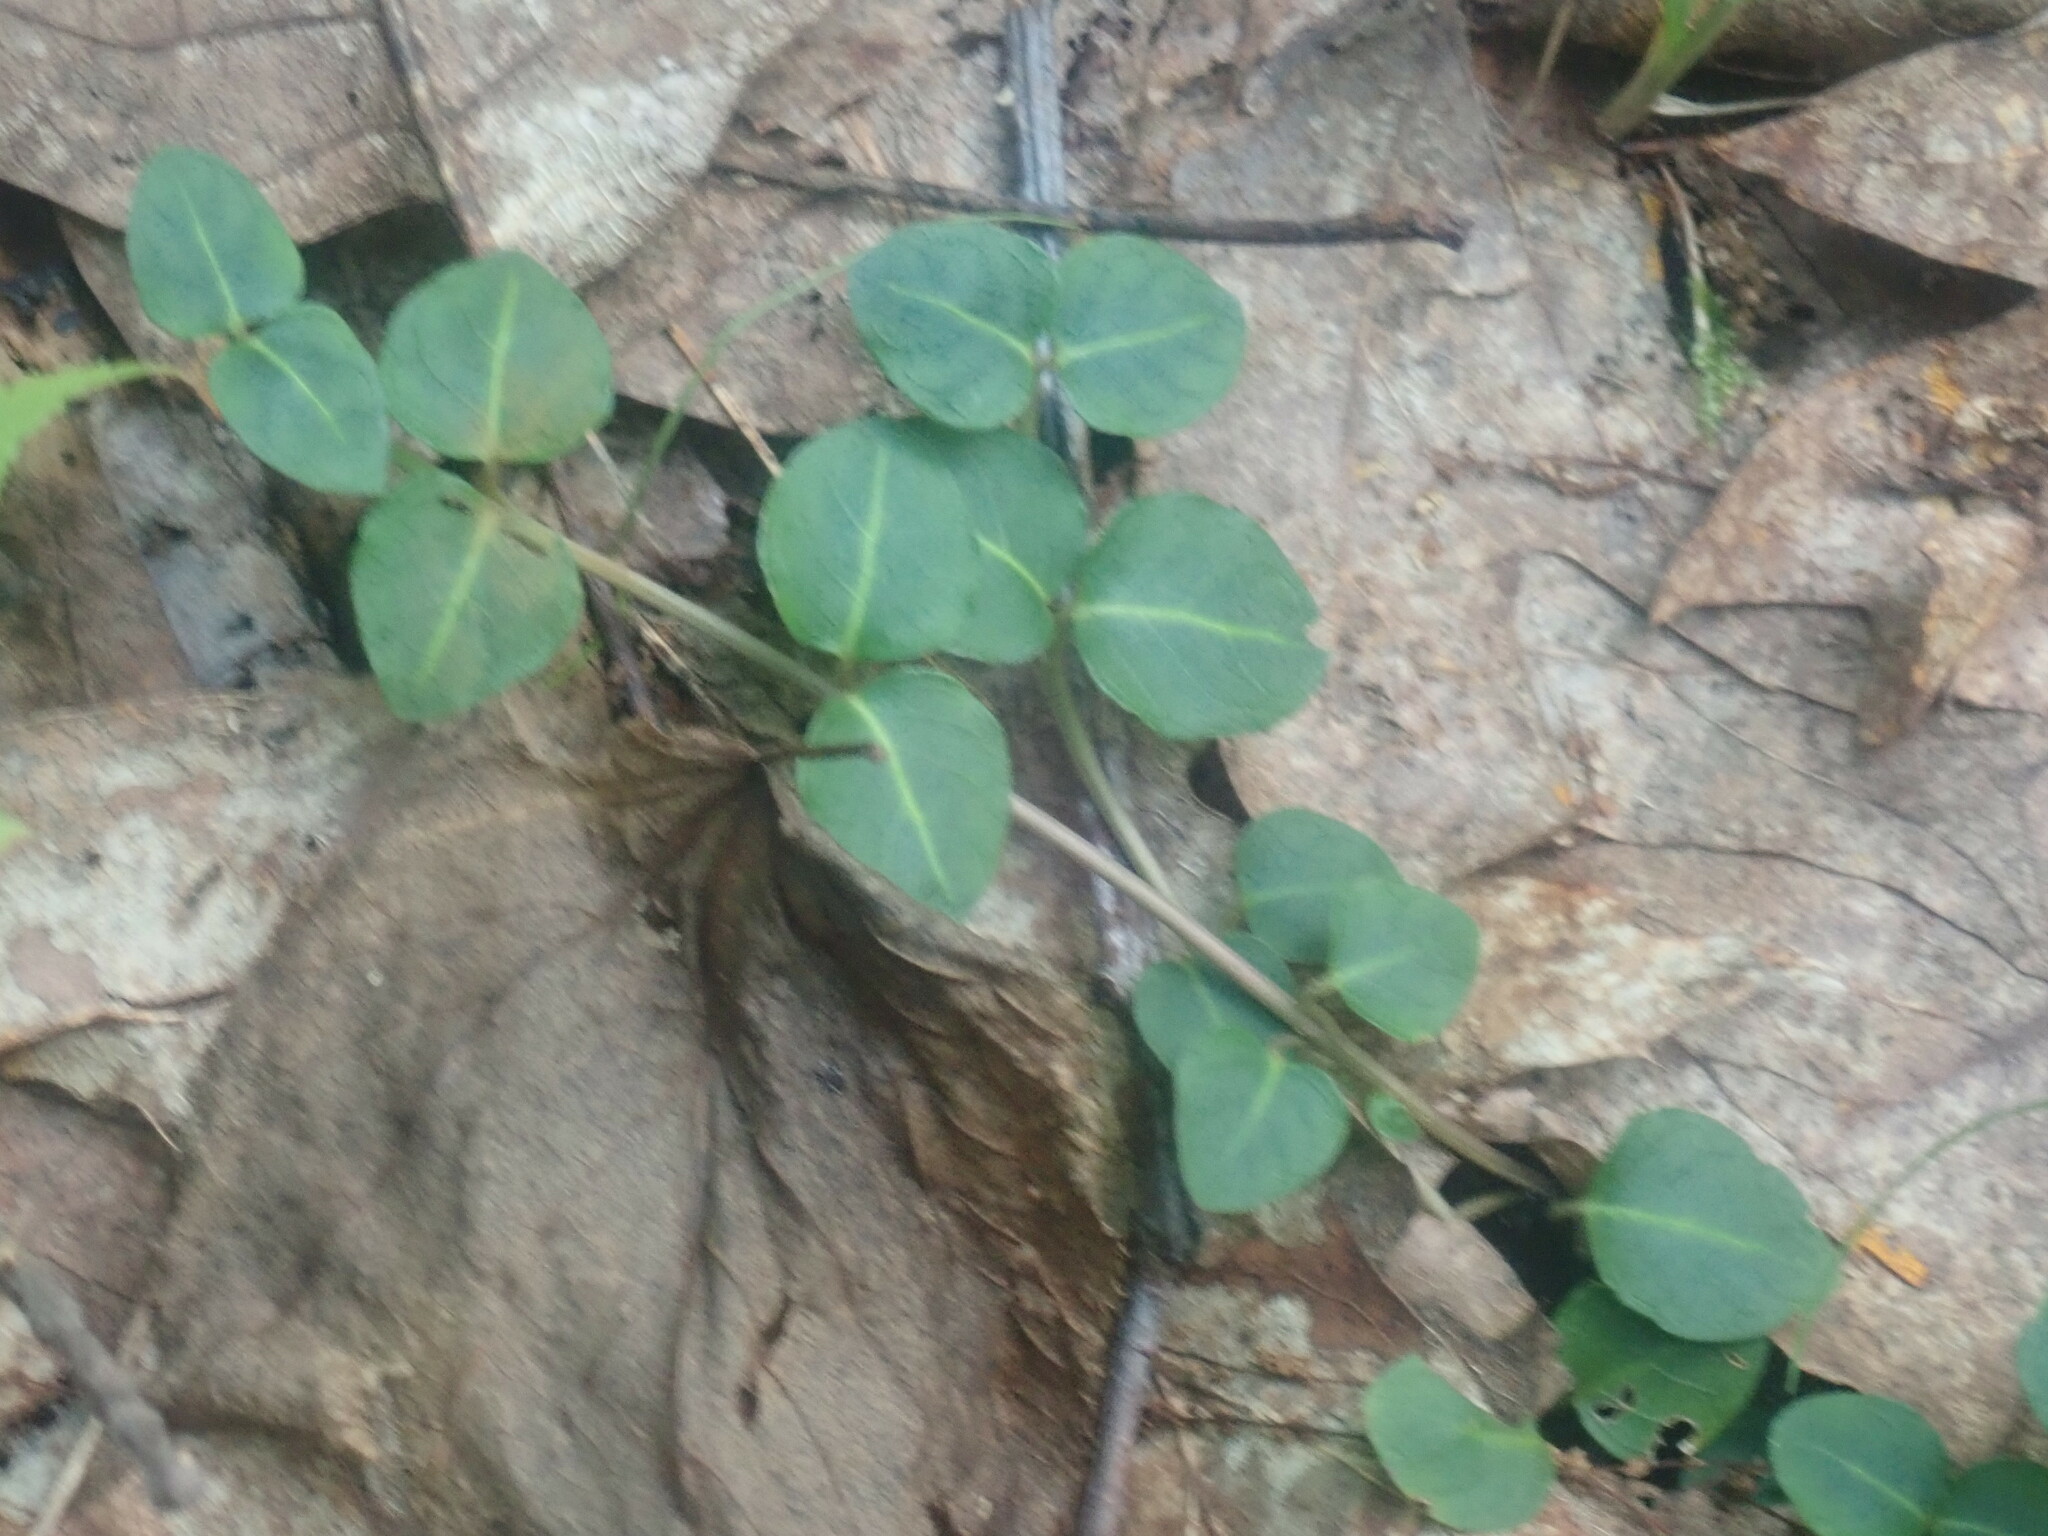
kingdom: Plantae
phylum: Tracheophyta
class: Magnoliopsida
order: Gentianales
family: Rubiaceae
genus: Mitchella
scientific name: Mitchella repens
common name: Partridge-berry
